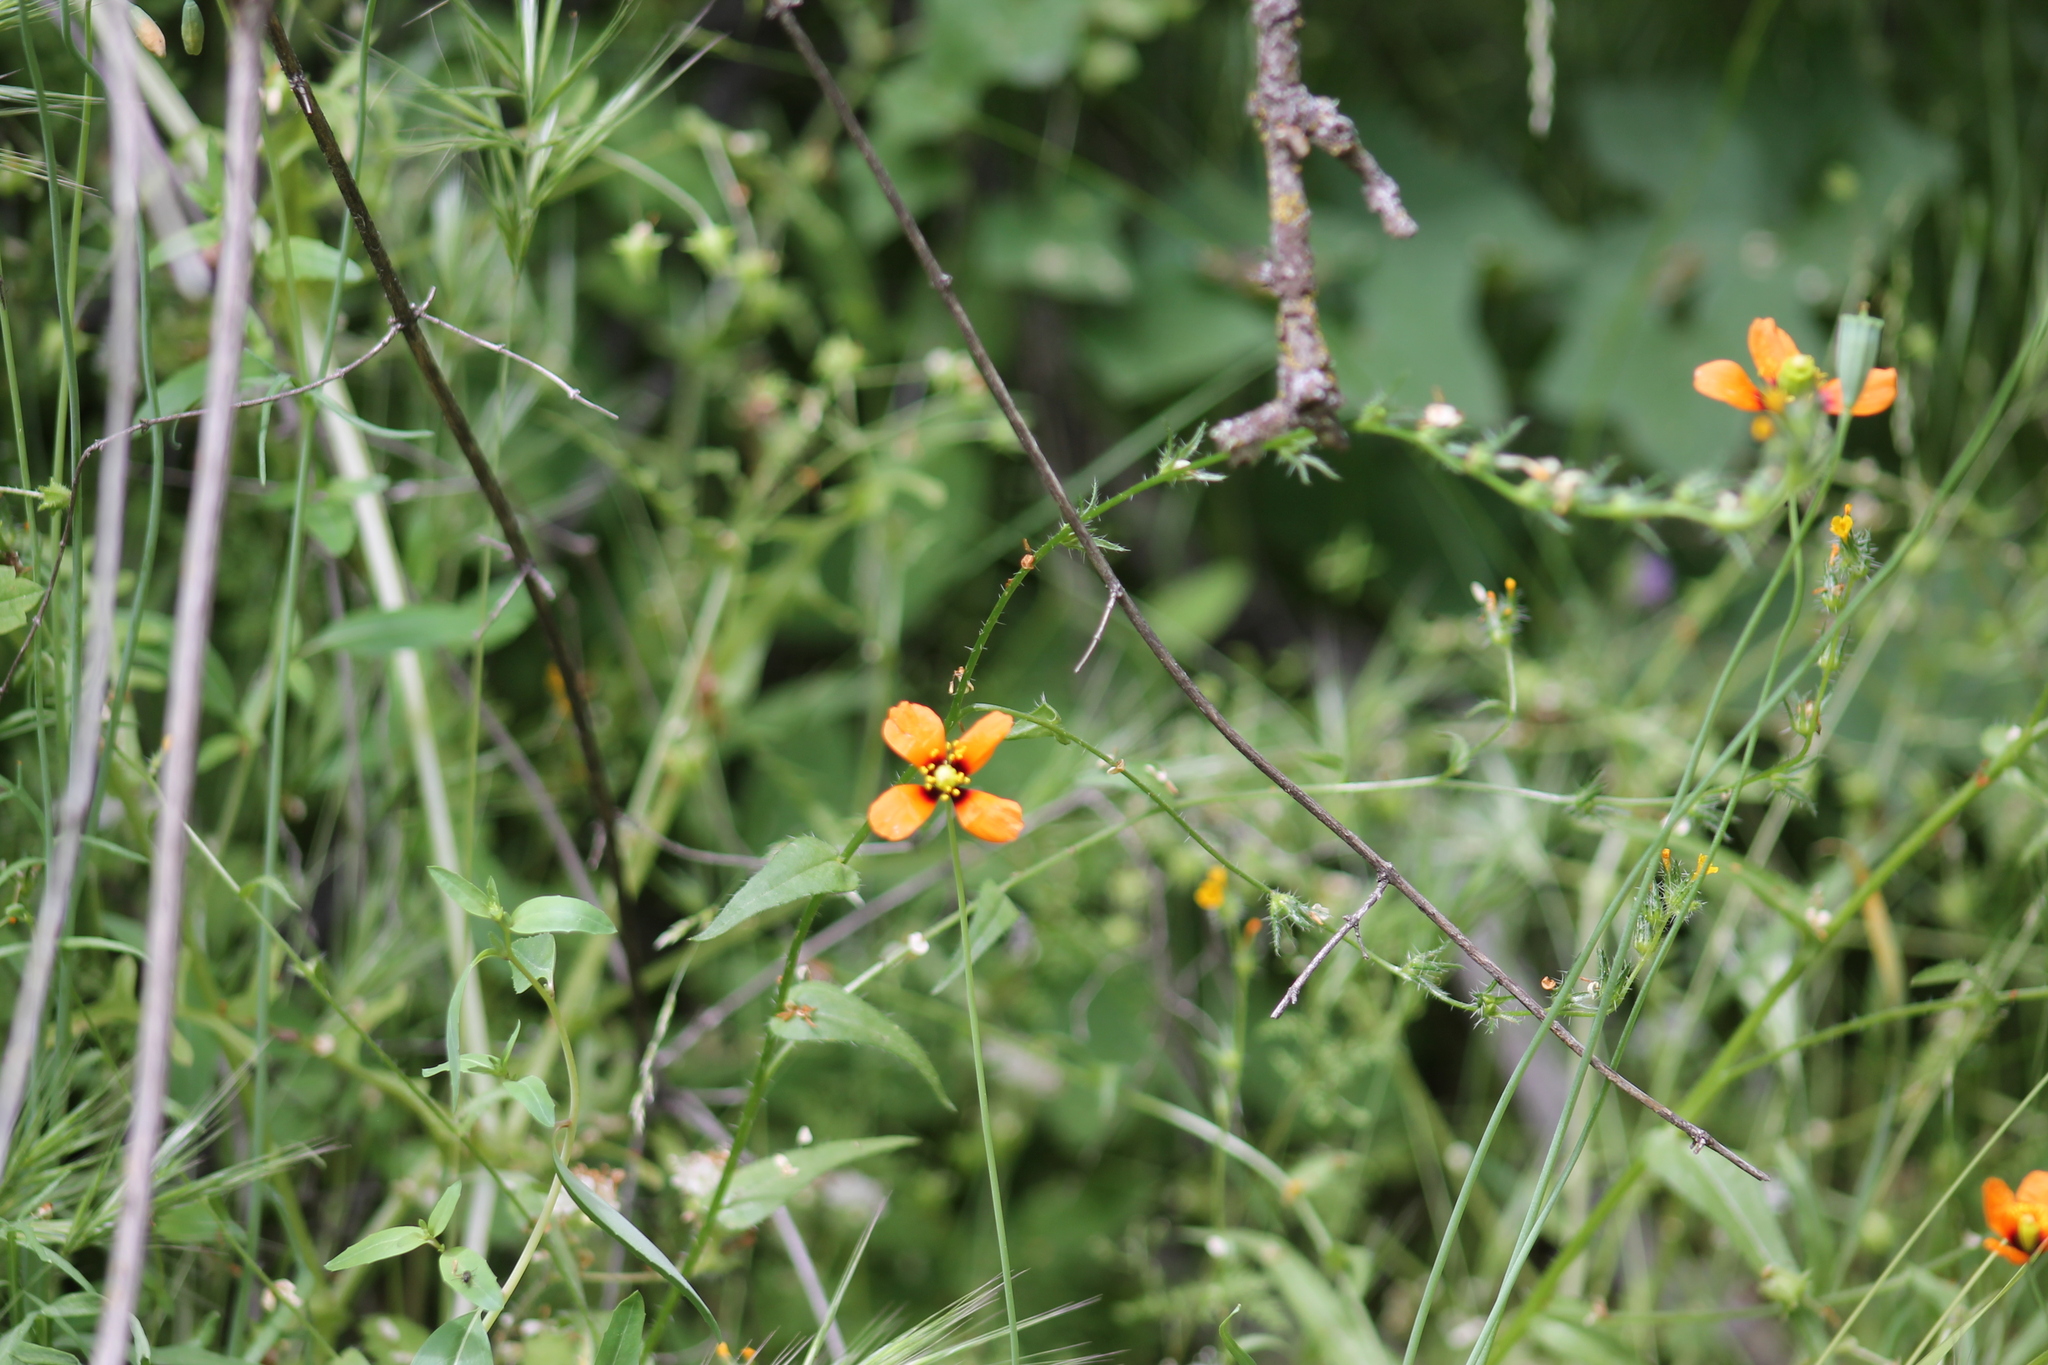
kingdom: Plantae
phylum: Tracheophyta
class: Magnoliopsida
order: Ranunculales
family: Papaveraceae
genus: Stylomecon
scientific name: Stylomecon heterophylla
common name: Flaming-poppy
